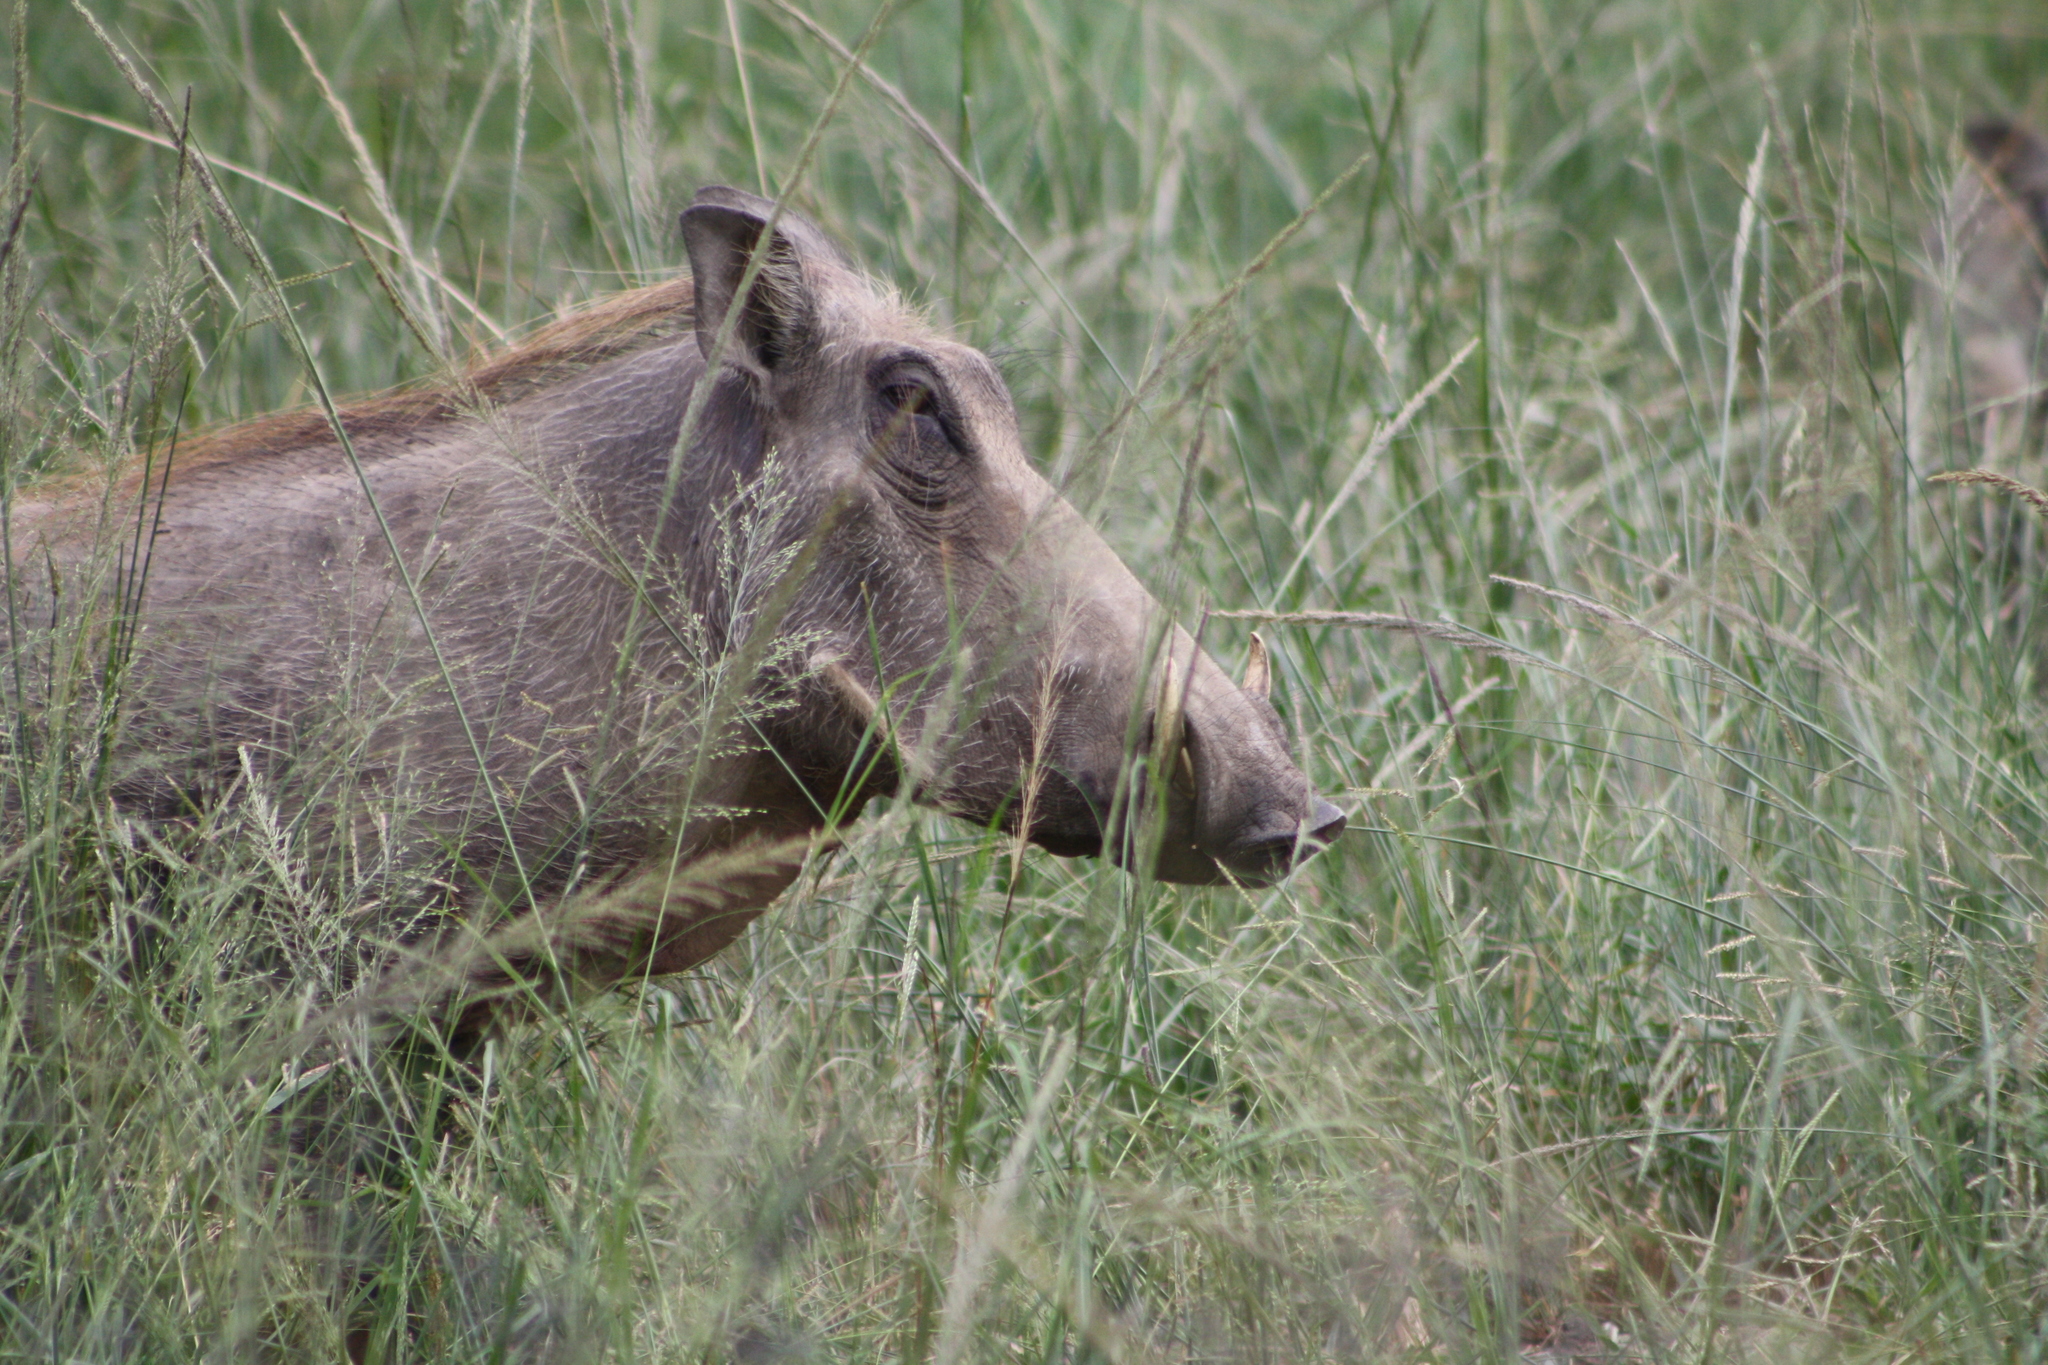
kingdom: Animalia
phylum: Chordata
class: Mammalia
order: Artiodactyla
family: Suidae
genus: Phacochoerus
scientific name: Phacochoerus africanus
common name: Common warthog
